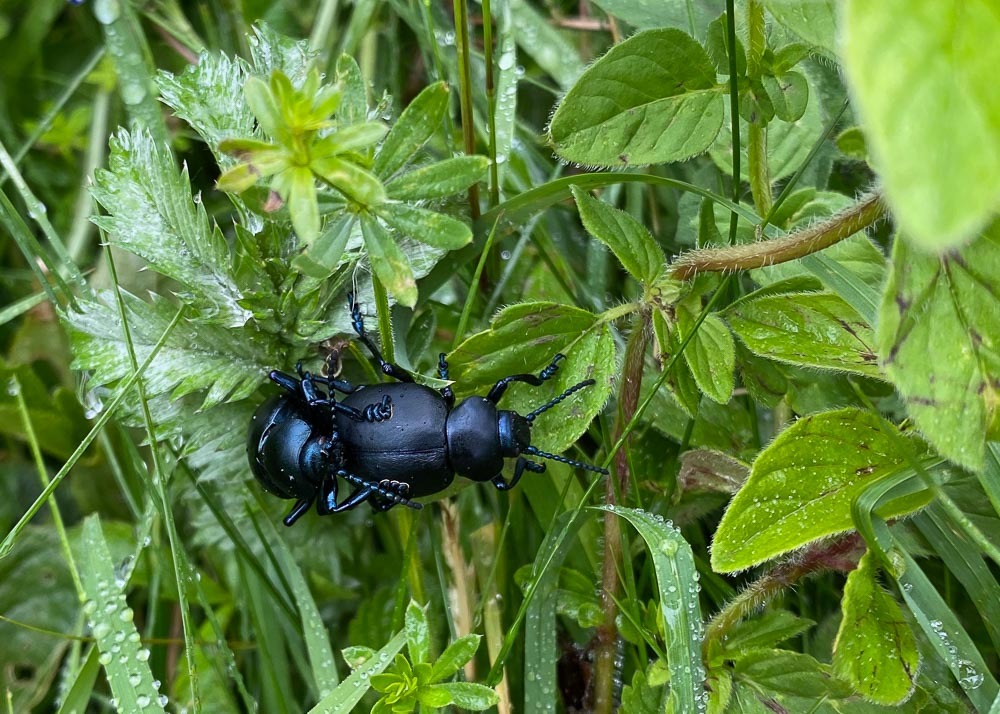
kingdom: Animalia
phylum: Arthropoda
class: Insecta
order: Coleoptera
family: Chrysomelidae
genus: Timarcha
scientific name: Timarcha tenebricosa
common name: Bloody-nosed beetle
